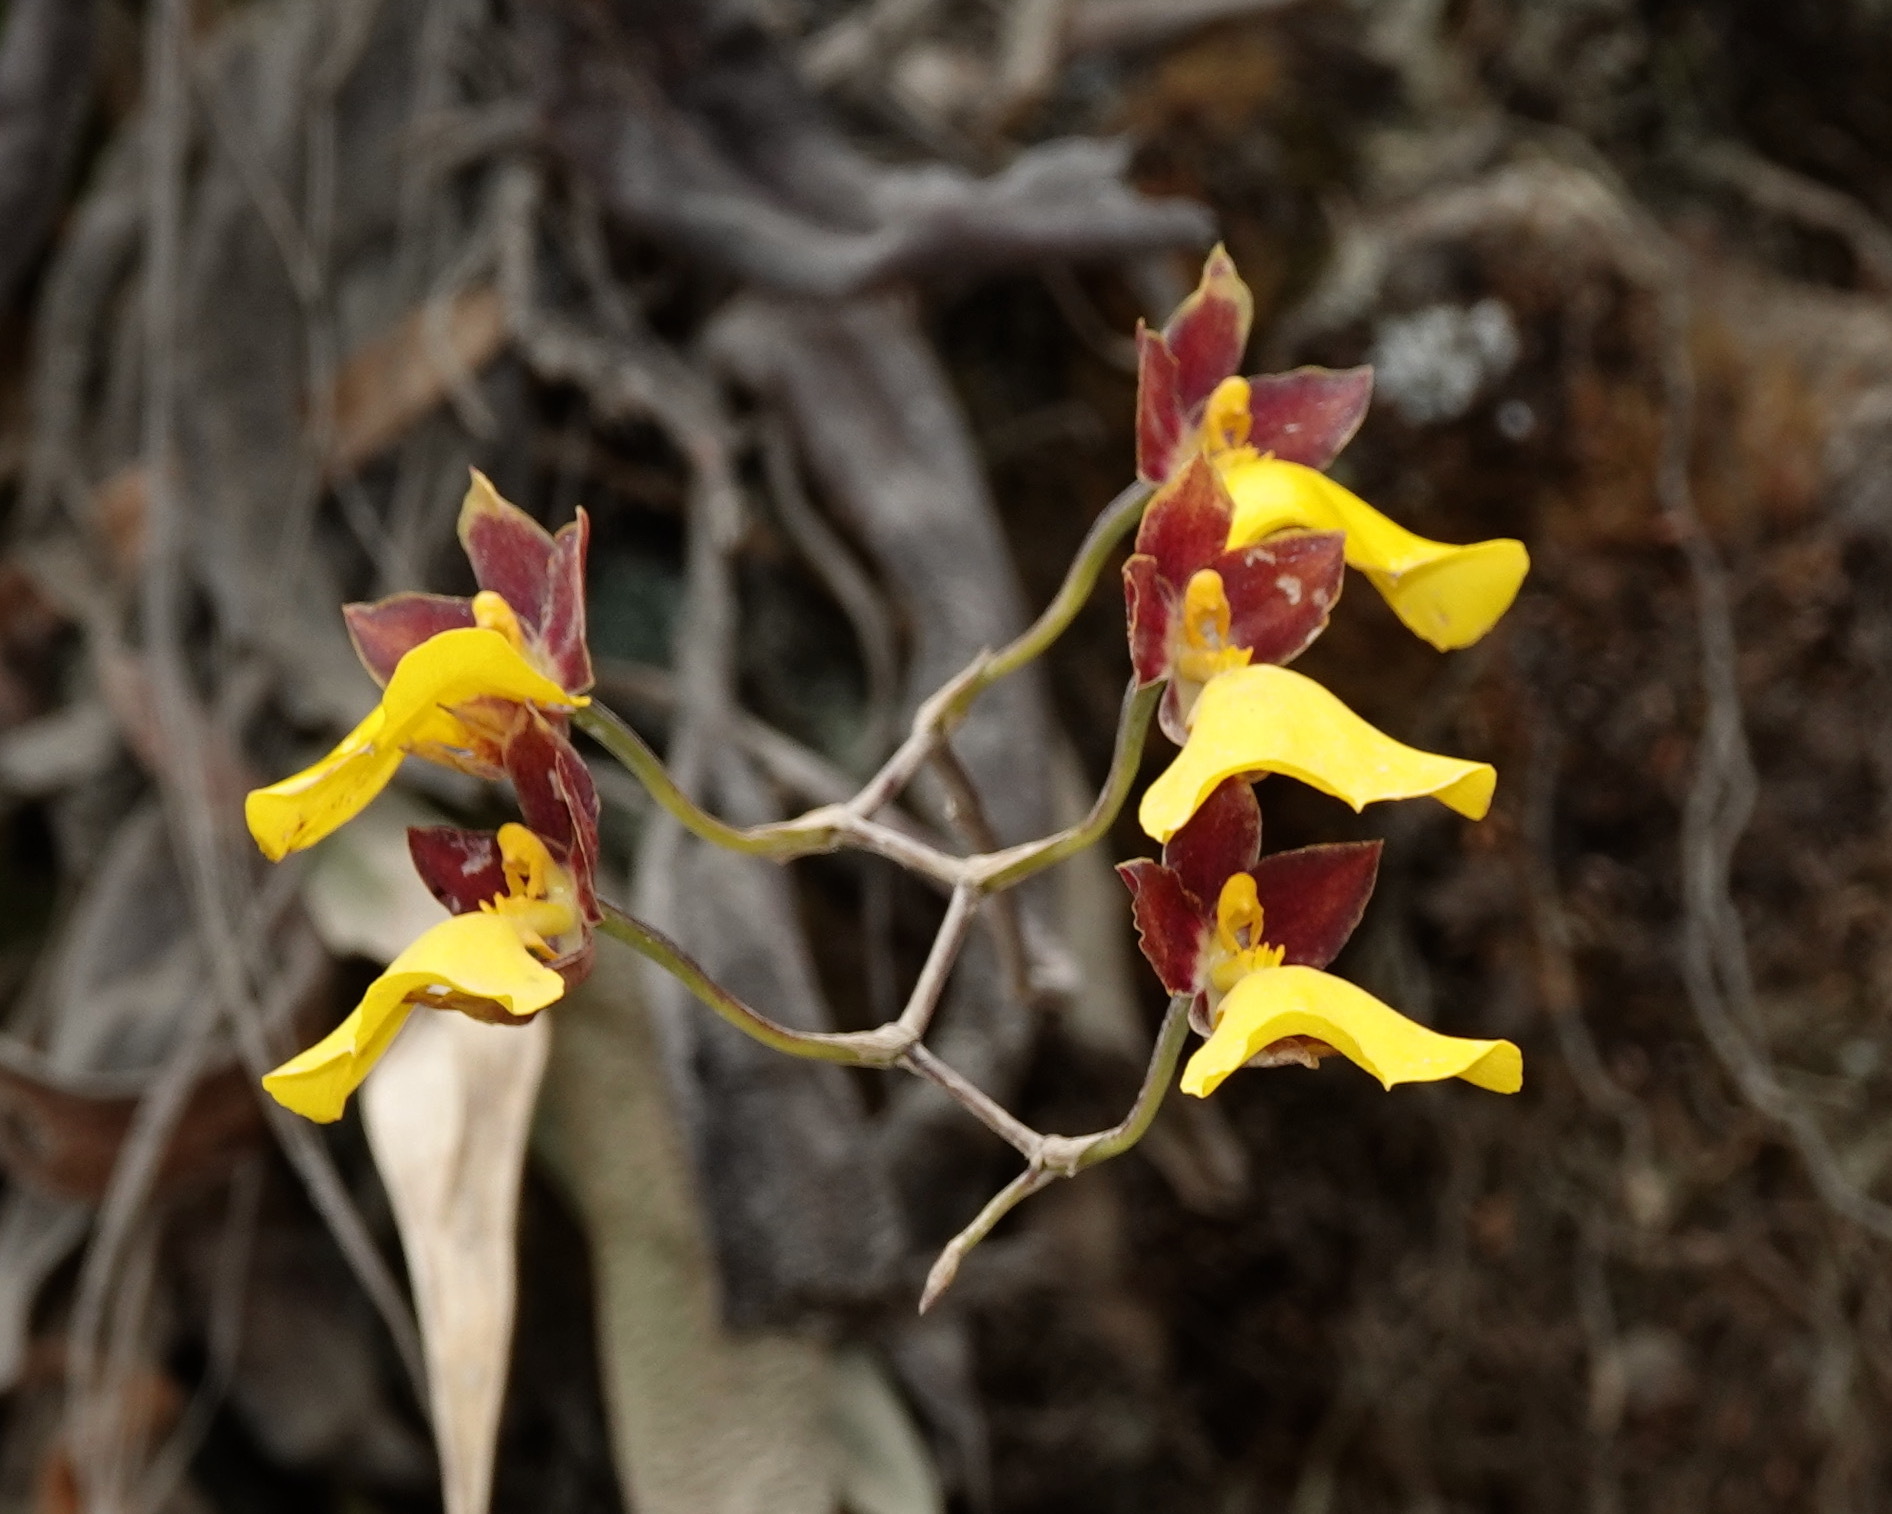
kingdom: Plantae
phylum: Tracheophyta
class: Liliopsida
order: Asparagales
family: Orchidaceae
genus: Cyrtochilum
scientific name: Cyrtochilum aureum
